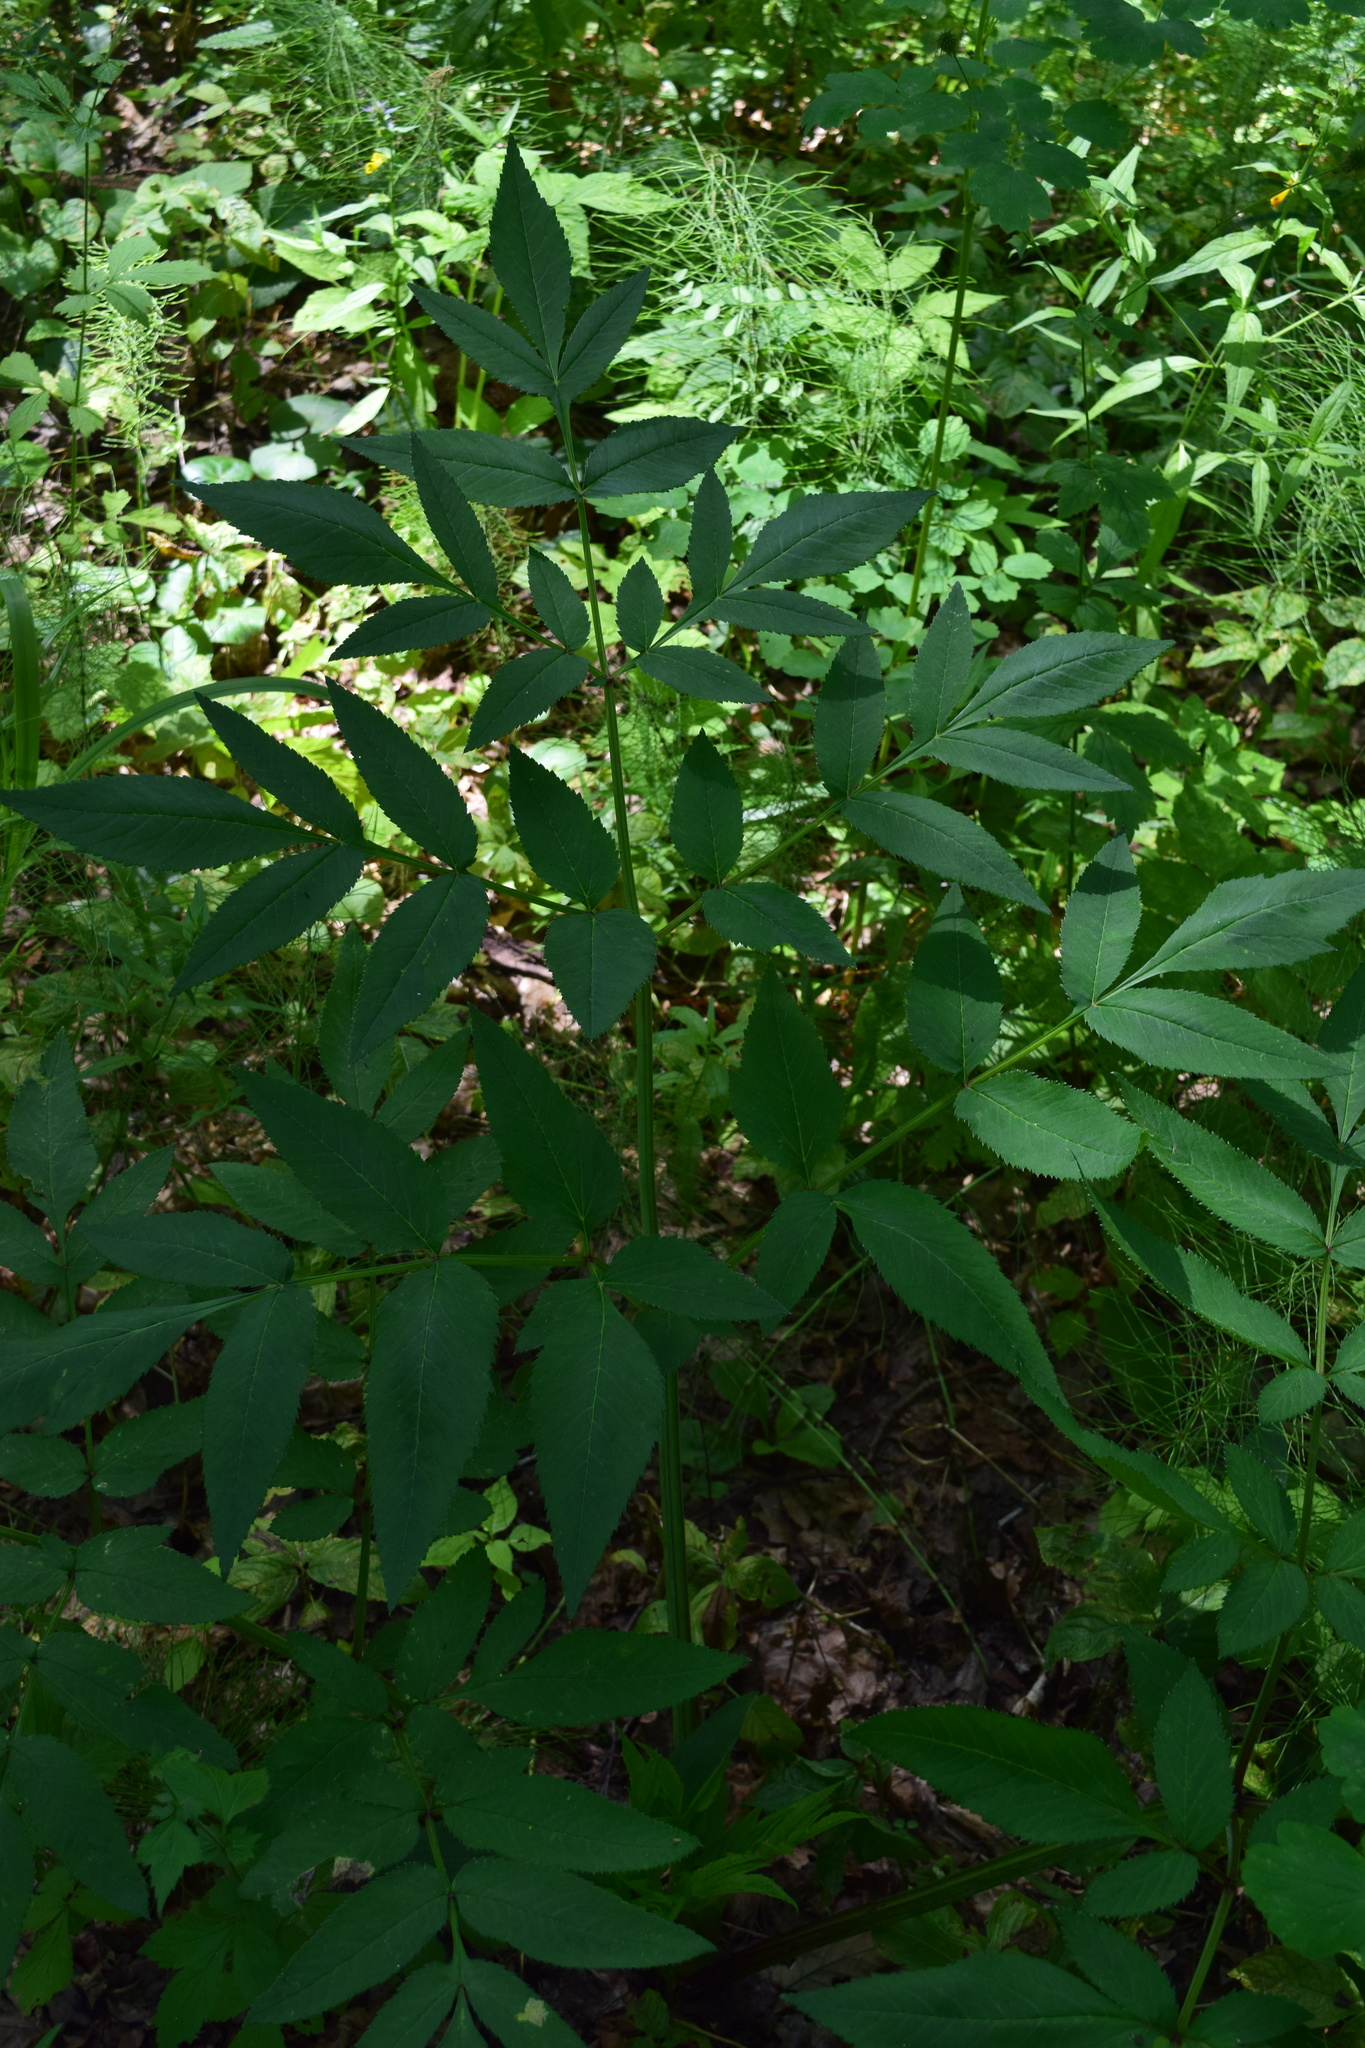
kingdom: Plantae
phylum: Tracheophyta
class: Magnoliopsida
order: Apiales
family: Apiaceae
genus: Angelica
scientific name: Angelica sylvestris
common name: Wild angelica
